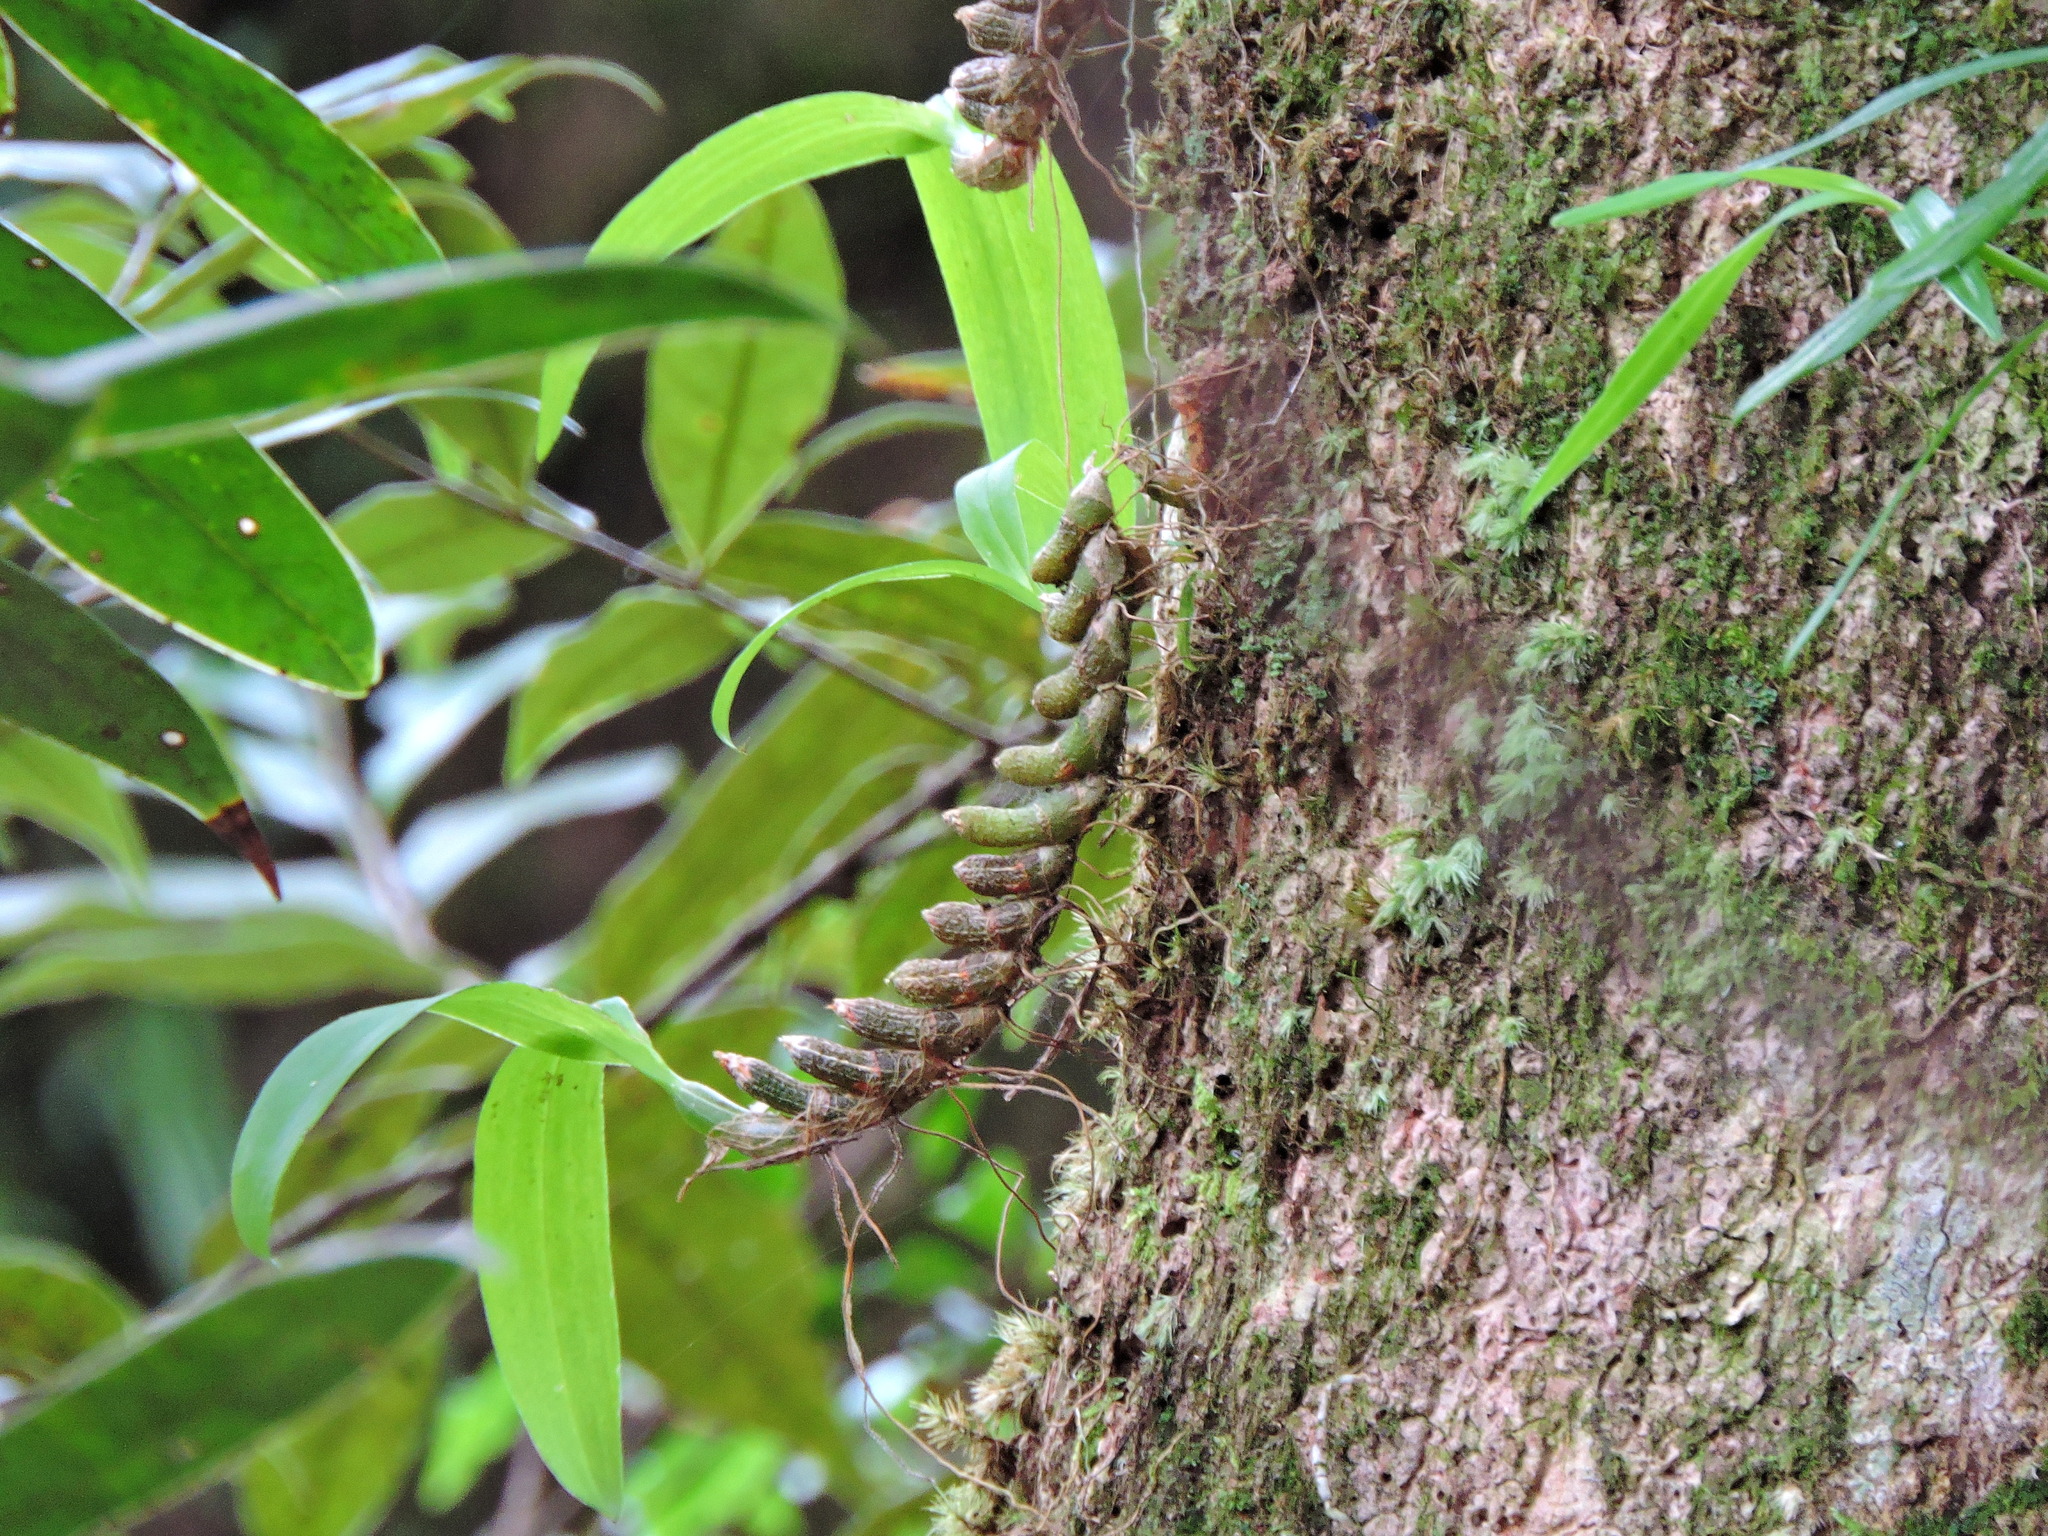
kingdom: Plantae
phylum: Tracheophyta
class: Liliopsida
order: Asparagales
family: Orchidaceae
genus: Pinalia
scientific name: Pinalia japonica
